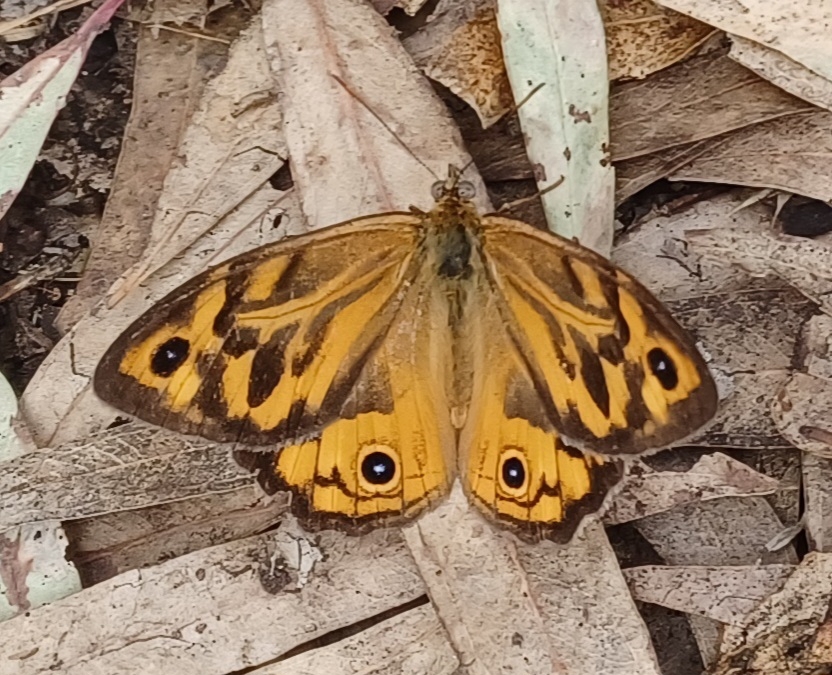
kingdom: Animalia
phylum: Arthropoda
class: Insecta
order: Lepidoptera
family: Nymphalidae
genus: Heteronympha
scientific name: Heteronympha merope
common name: Common brown
